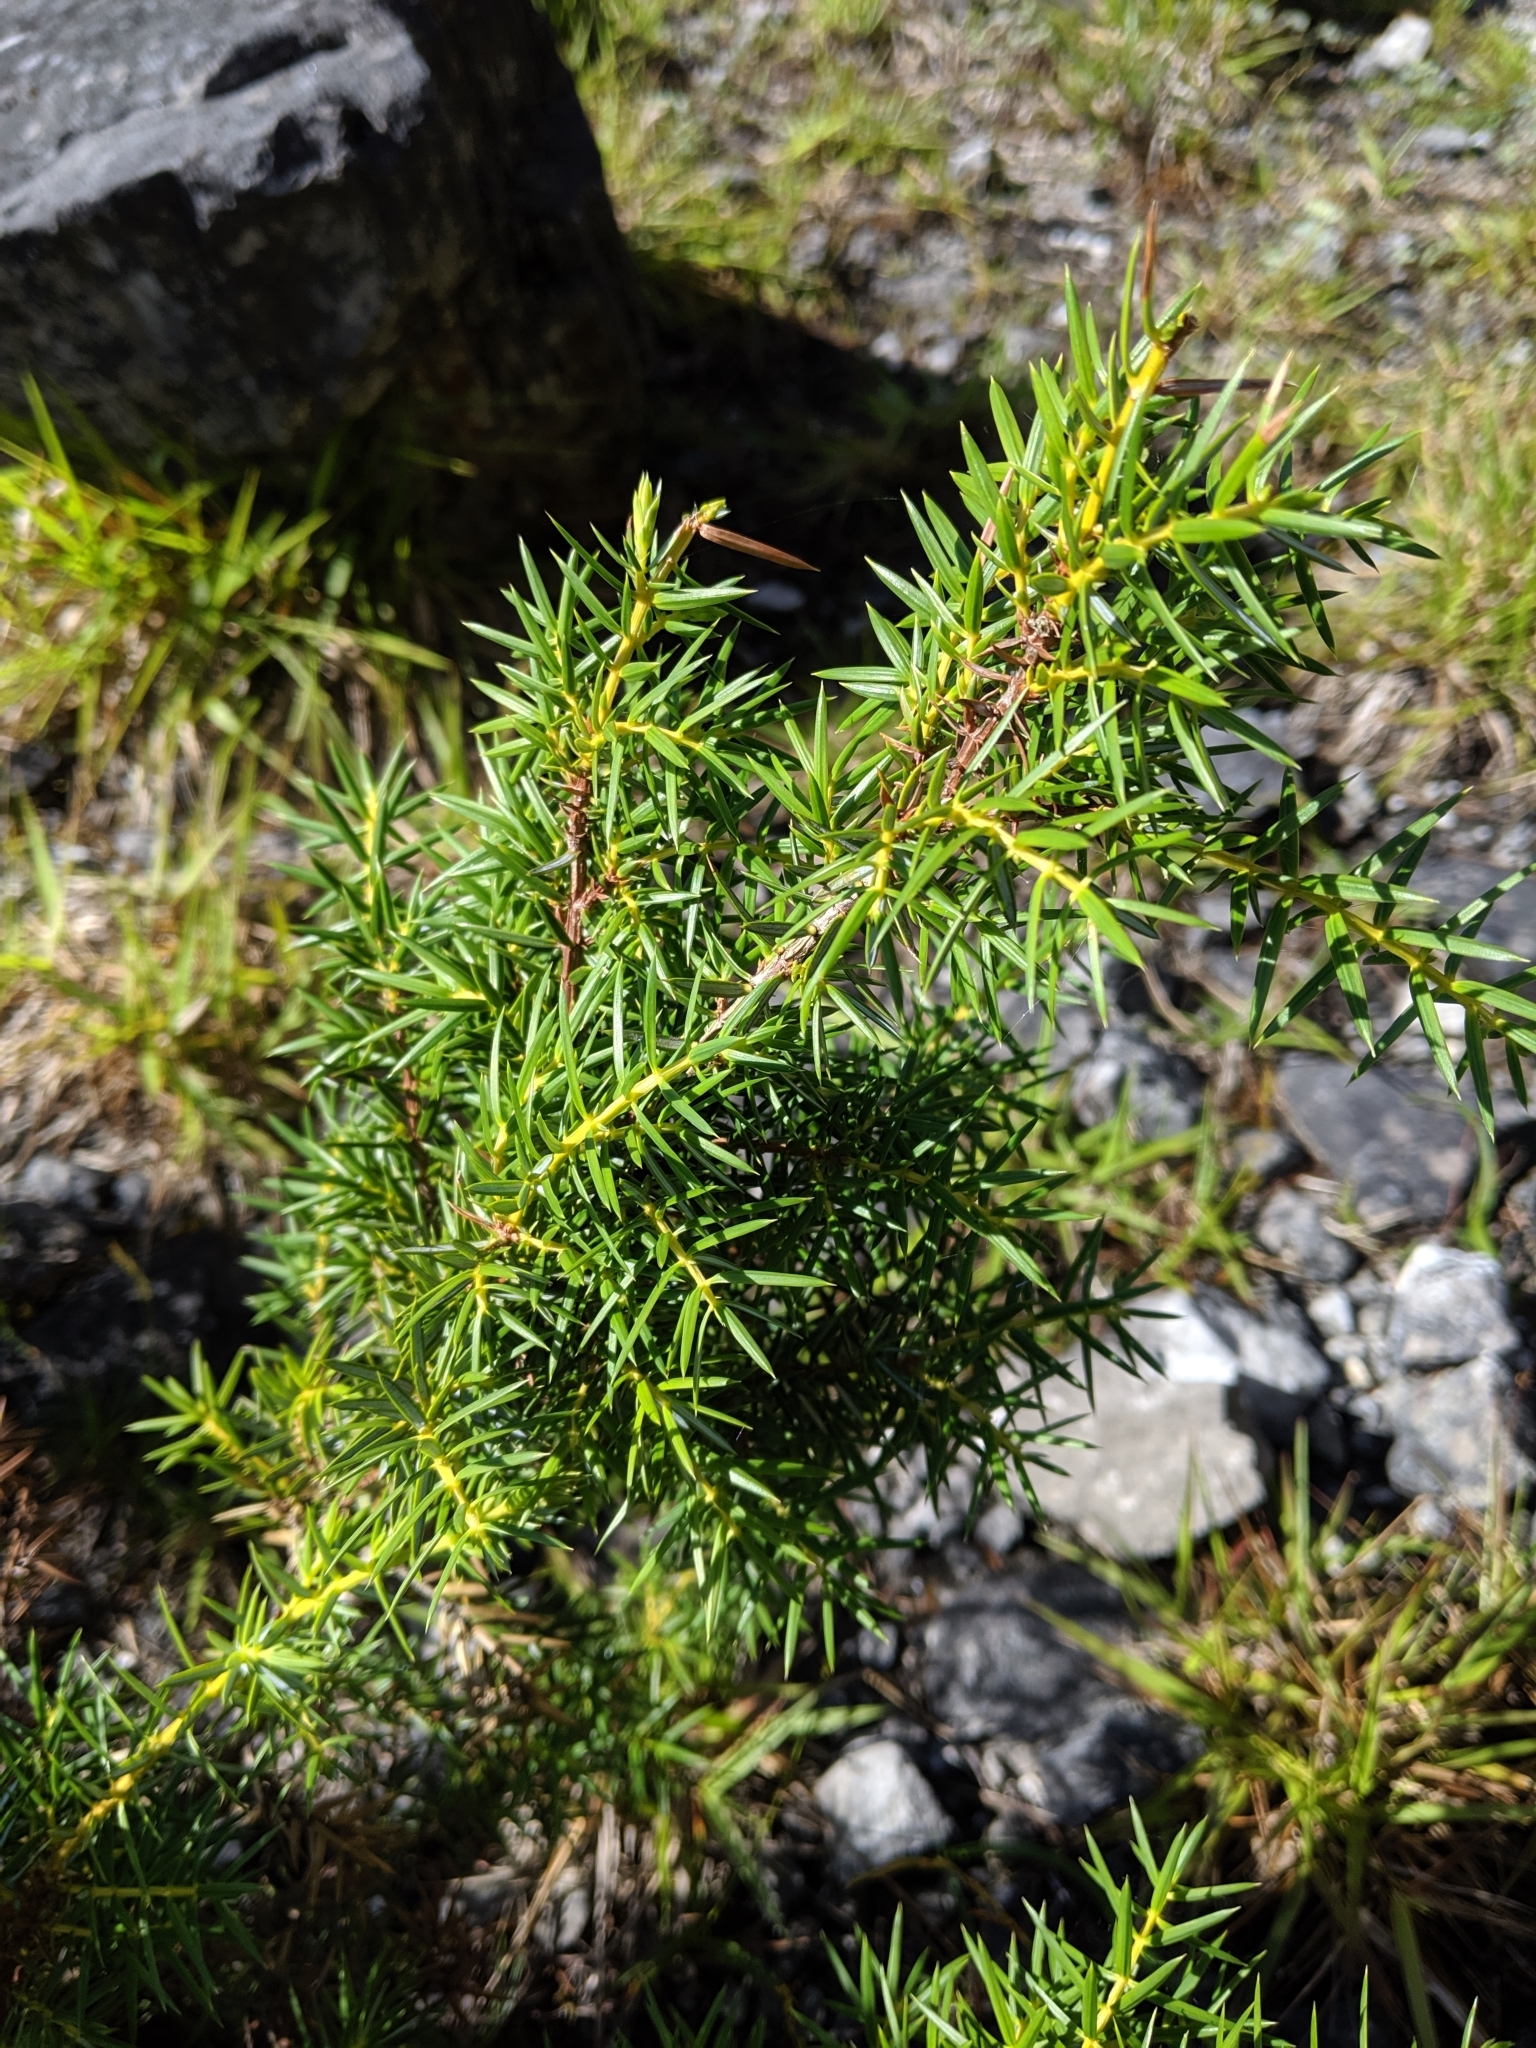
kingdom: Plantae
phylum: Tracheophyta
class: Pinopsida
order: Pinales
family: Cupressaceae
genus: Juniperus
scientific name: Juniperus formosana
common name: Formosan juniper
